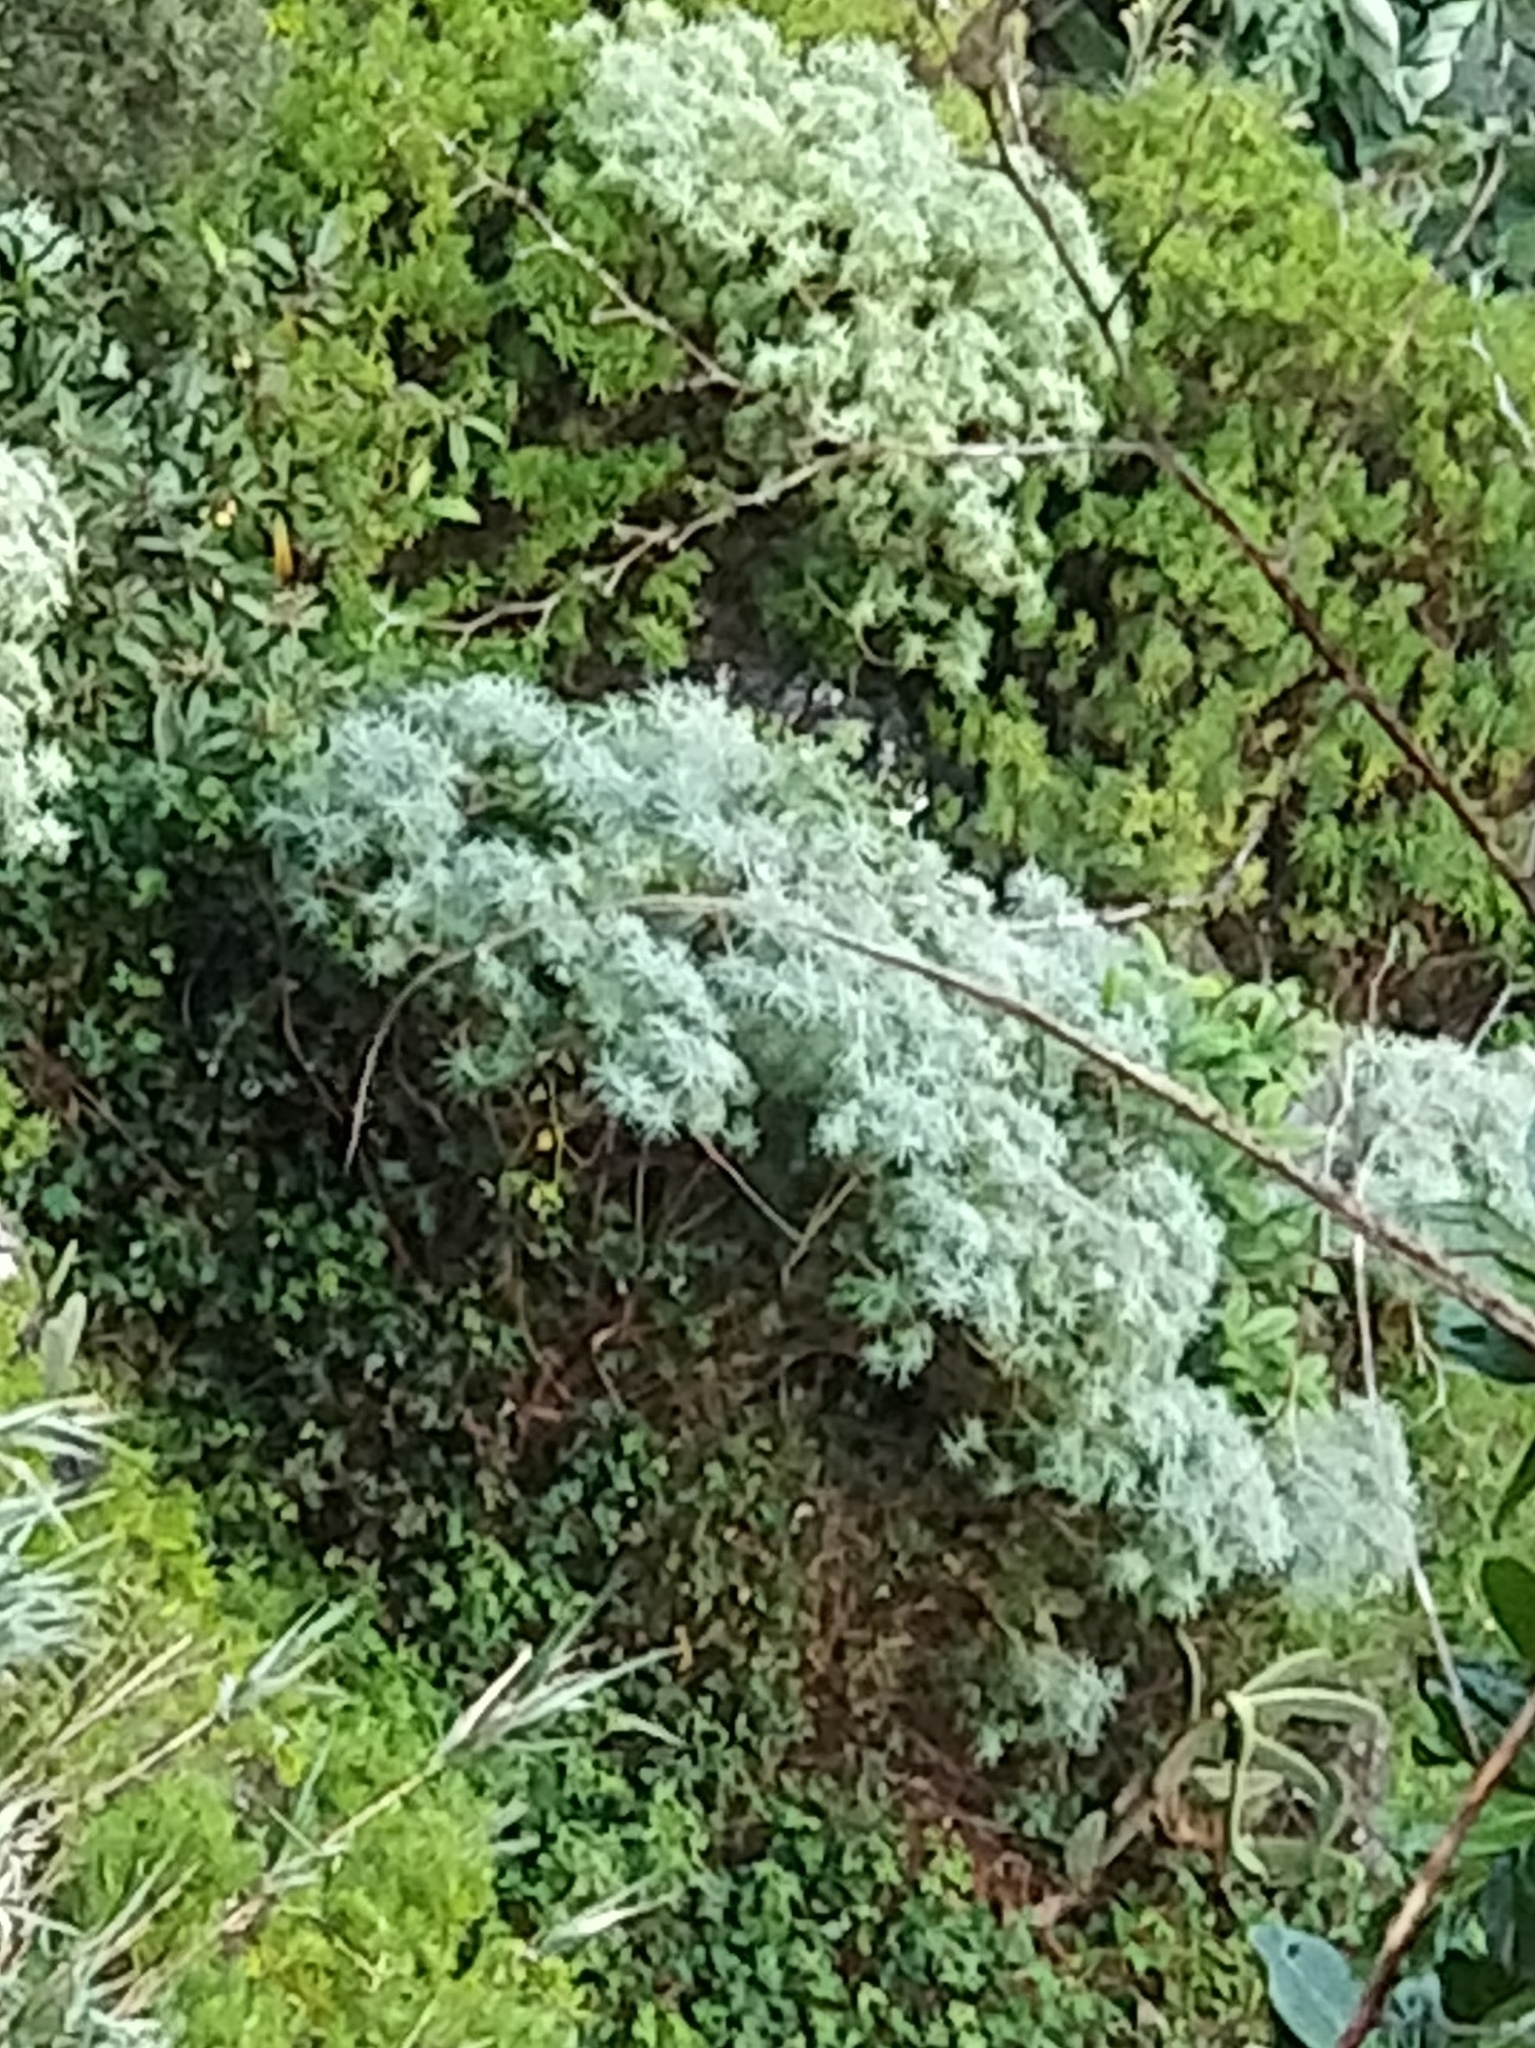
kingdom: Plantae
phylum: Tracheophyta
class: Magnoliopsida
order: Malpighiales
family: Euphorbiaceae
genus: Euphorbia
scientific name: Euphorbia piscatoria
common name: Fish-stunning spurge
